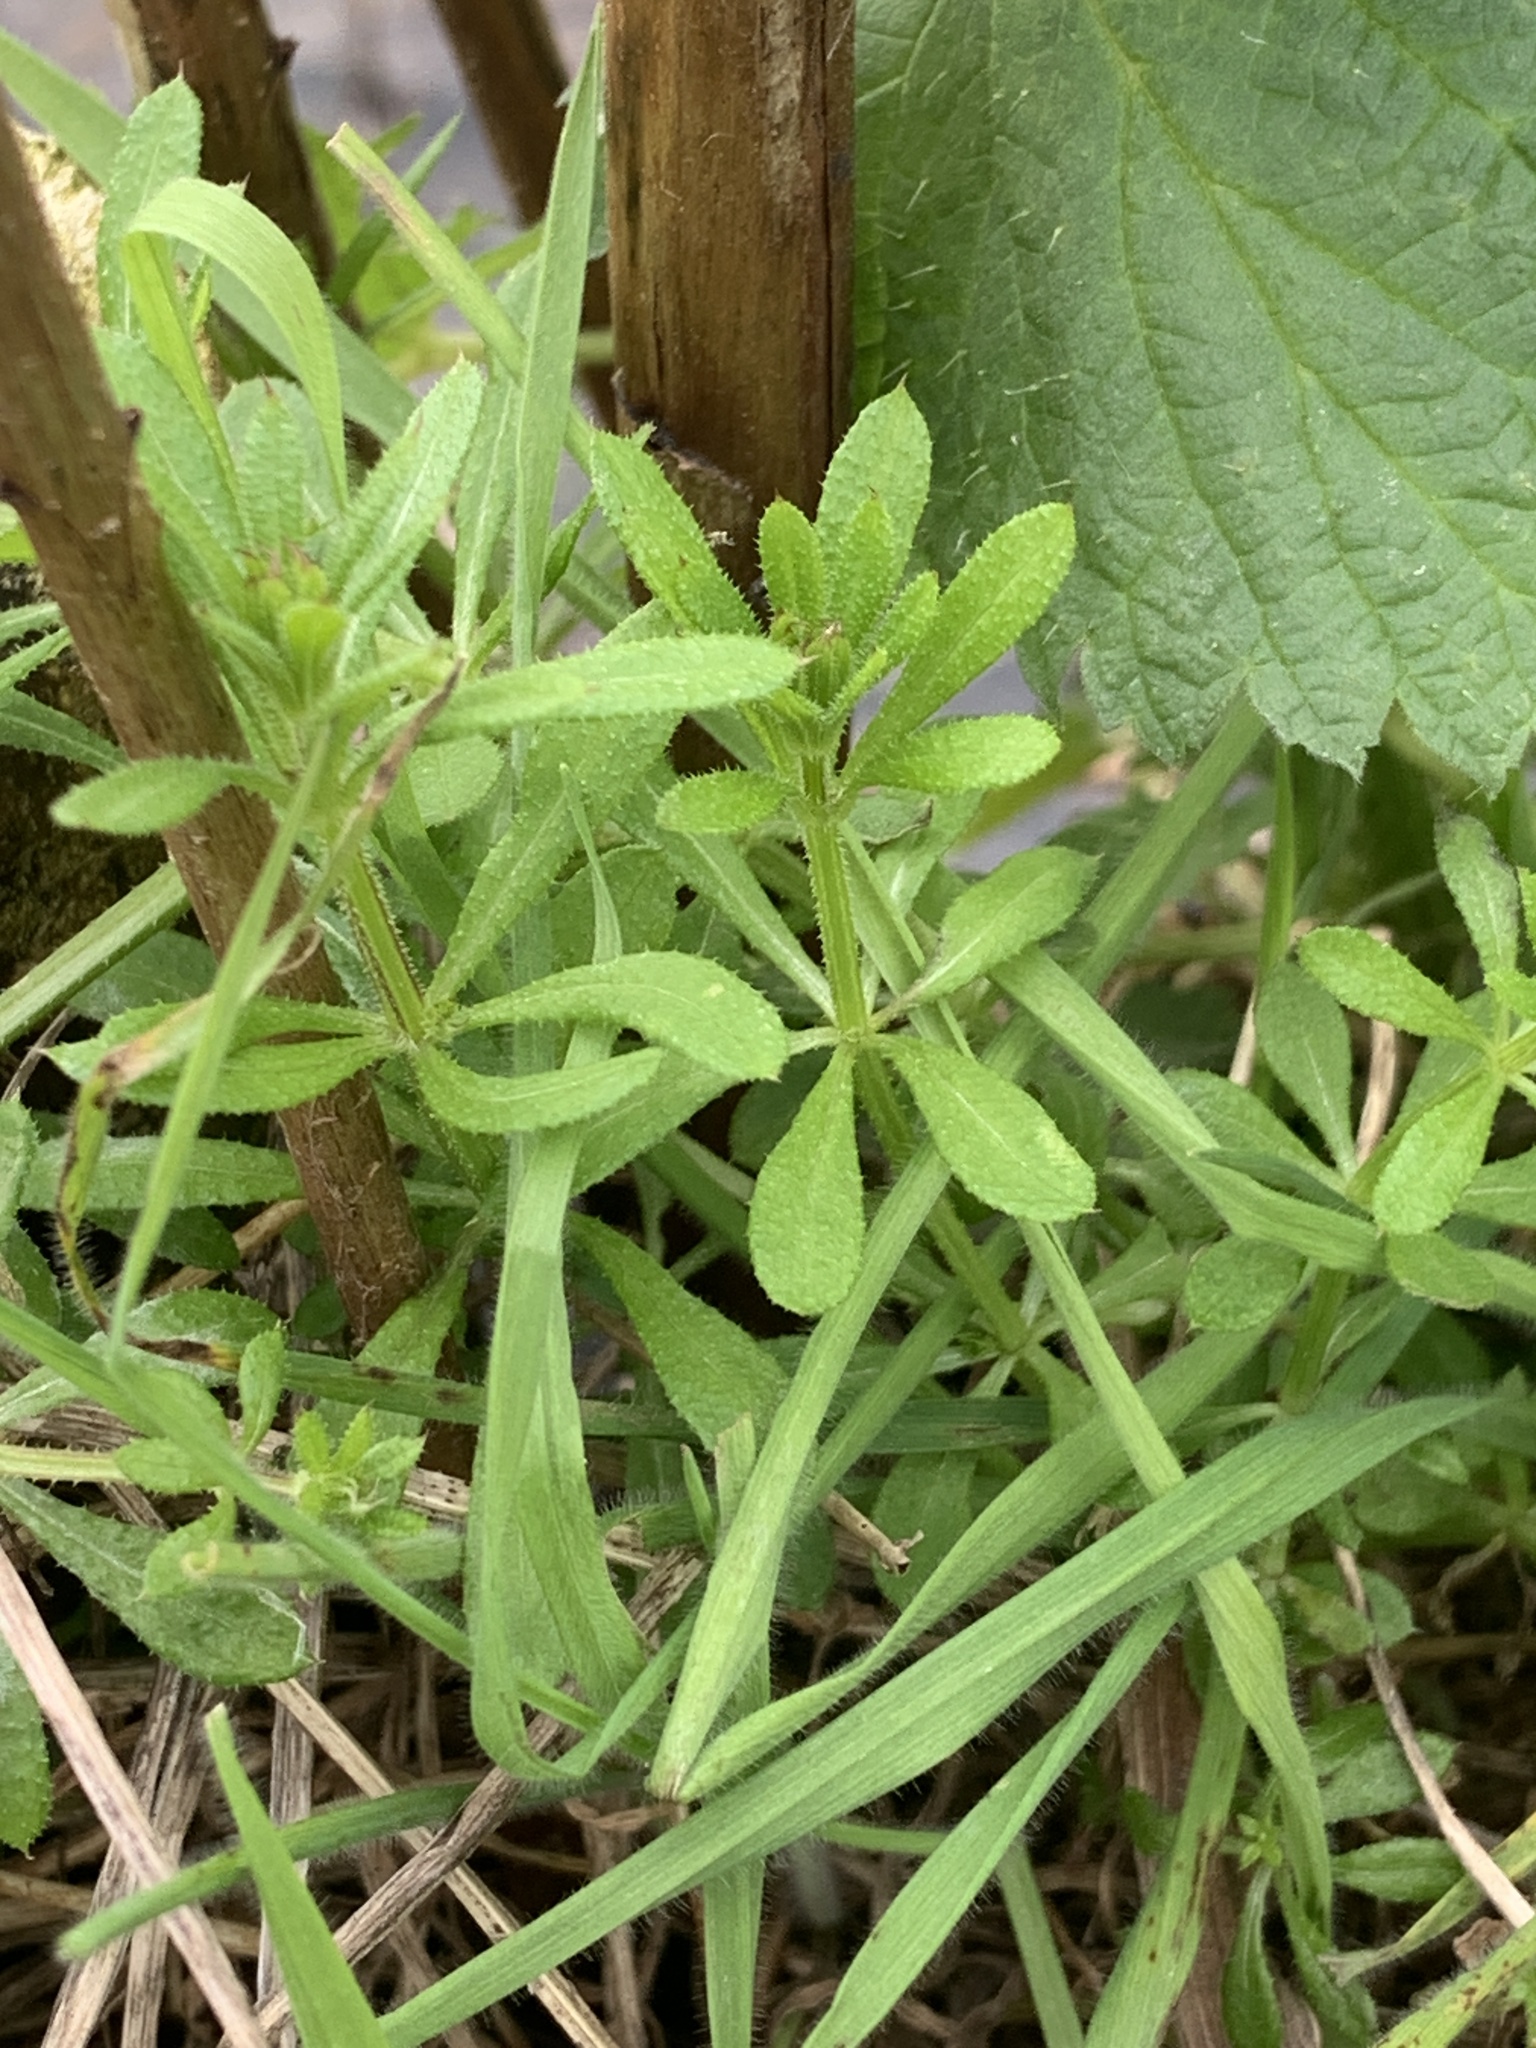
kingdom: Plantae
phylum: Tracheophyta
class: Magnoliopsida
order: Gentianales
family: Rubiaceae
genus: Galium
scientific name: Galium aparine
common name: Cleavers
